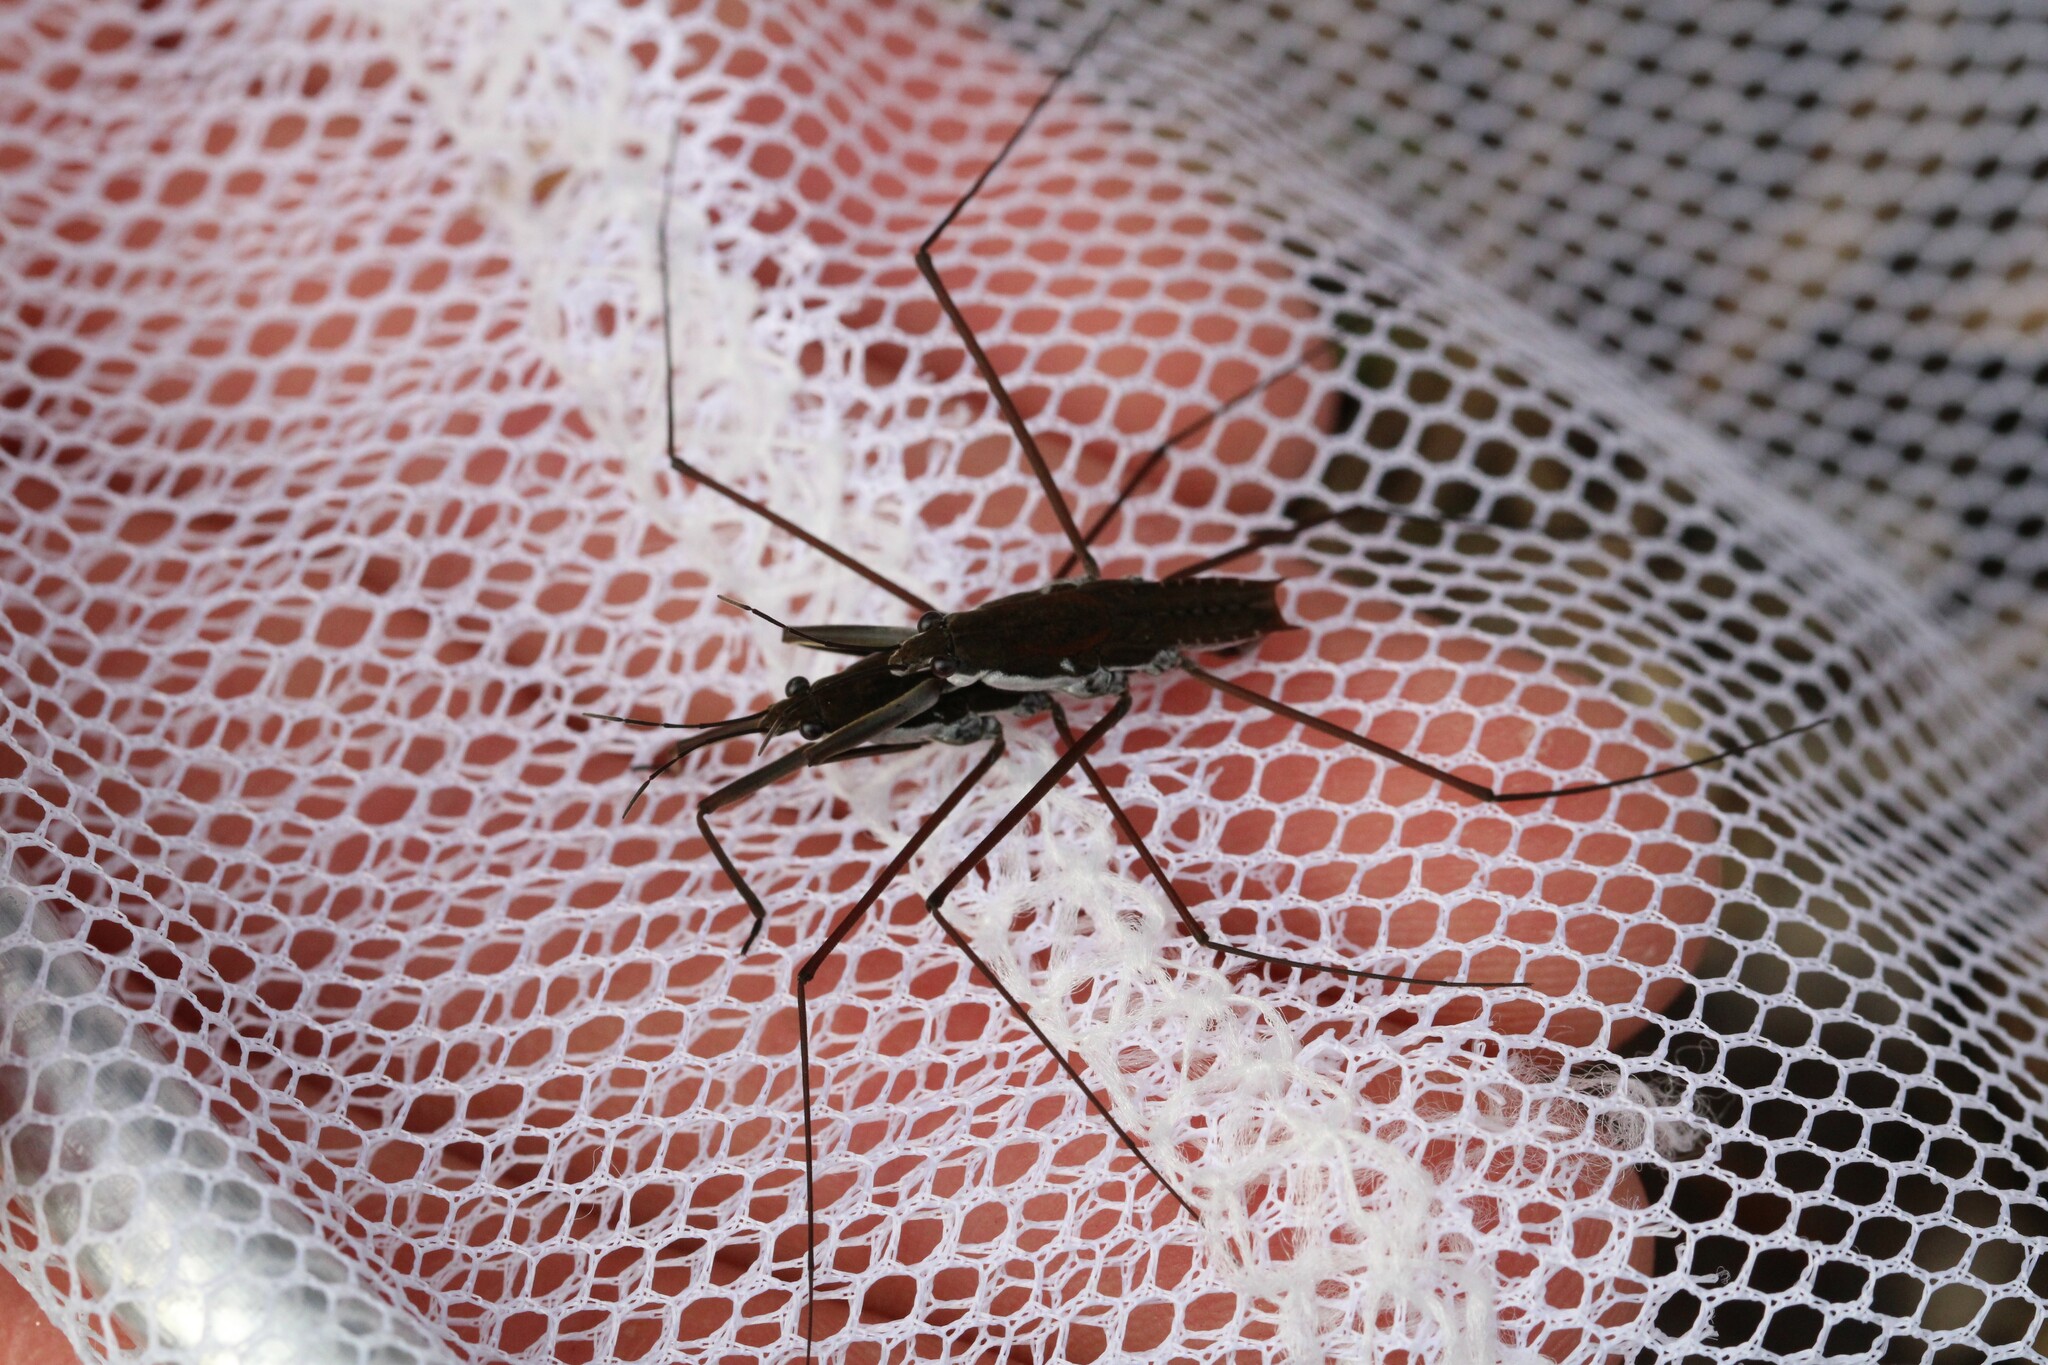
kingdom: Animalia
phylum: Arthropoda
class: Insecta
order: Hemiptera
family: Gerridae
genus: Aquarius
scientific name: Aquarius
